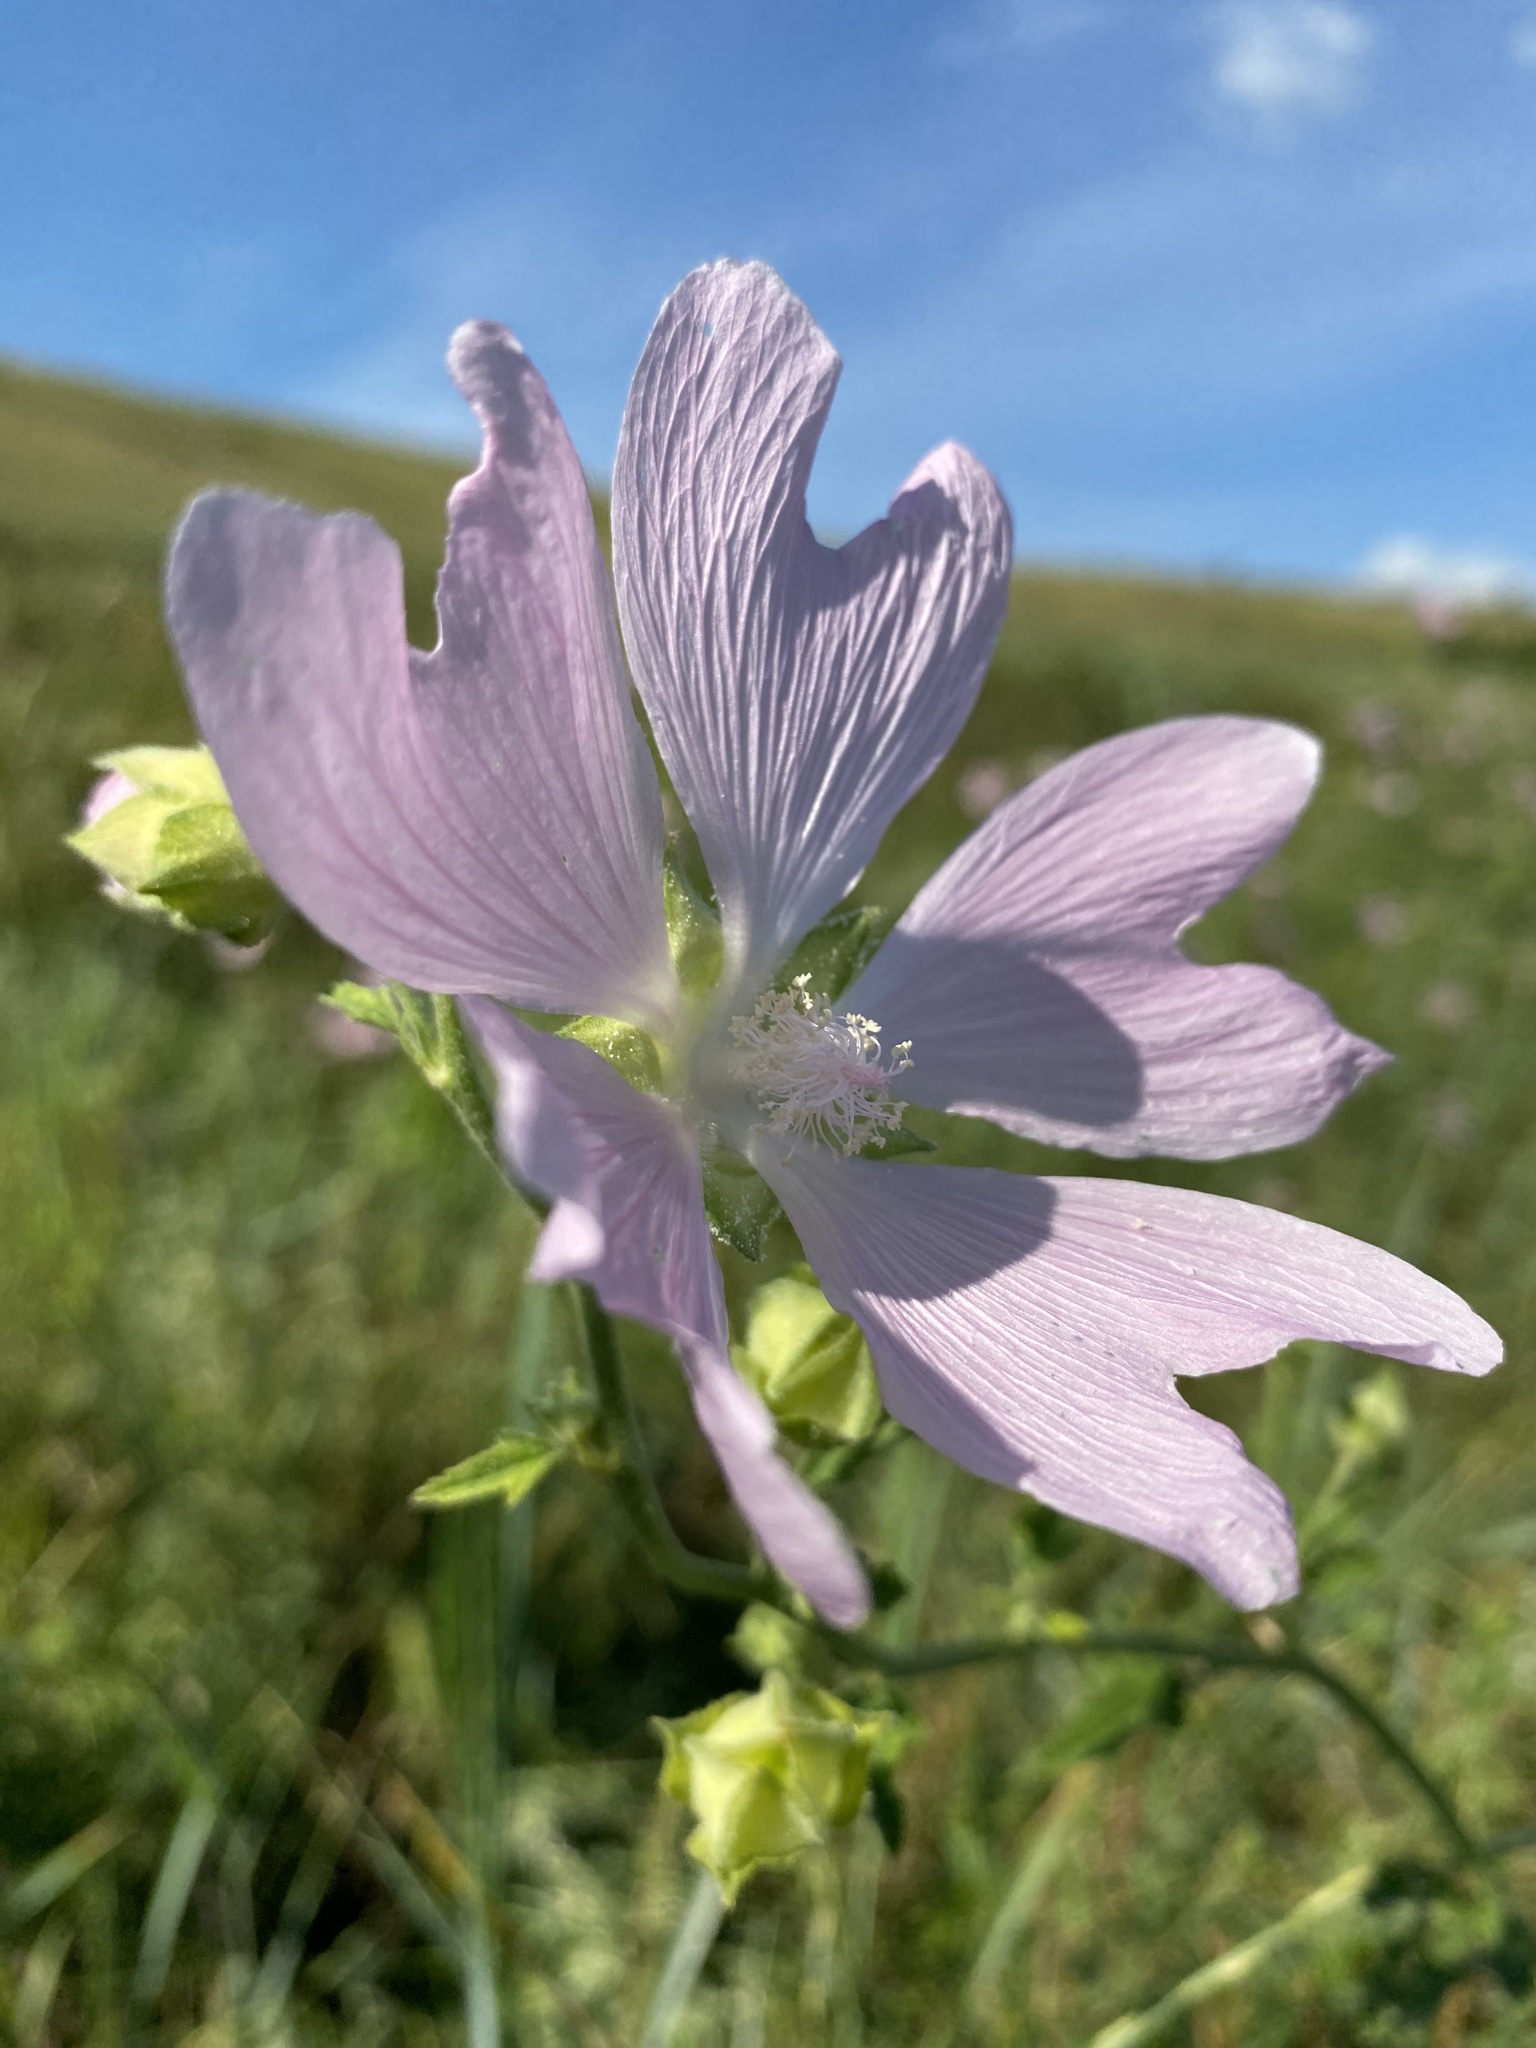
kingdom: Plantae
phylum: Tracheophyta
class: Magnoliopsida
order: Malvales
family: Malvaceae
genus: Malva
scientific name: Malva thuringiaca
